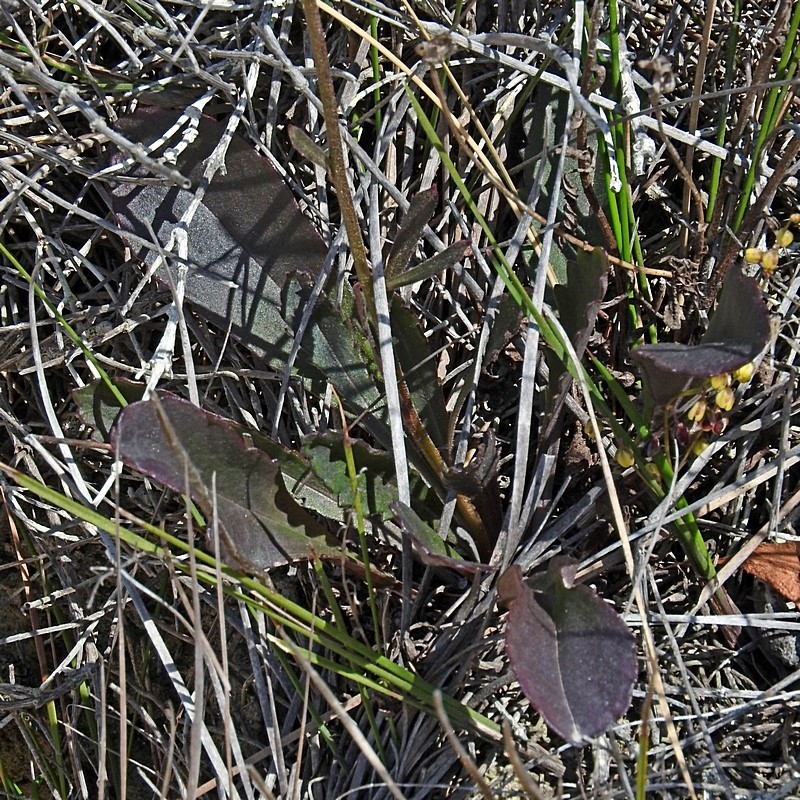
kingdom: Plantae
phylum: Tracheophyta
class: Magnoliopsida
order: Asterales
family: Asteraceae
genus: Brachyscome
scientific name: Brachyscome spathulata
